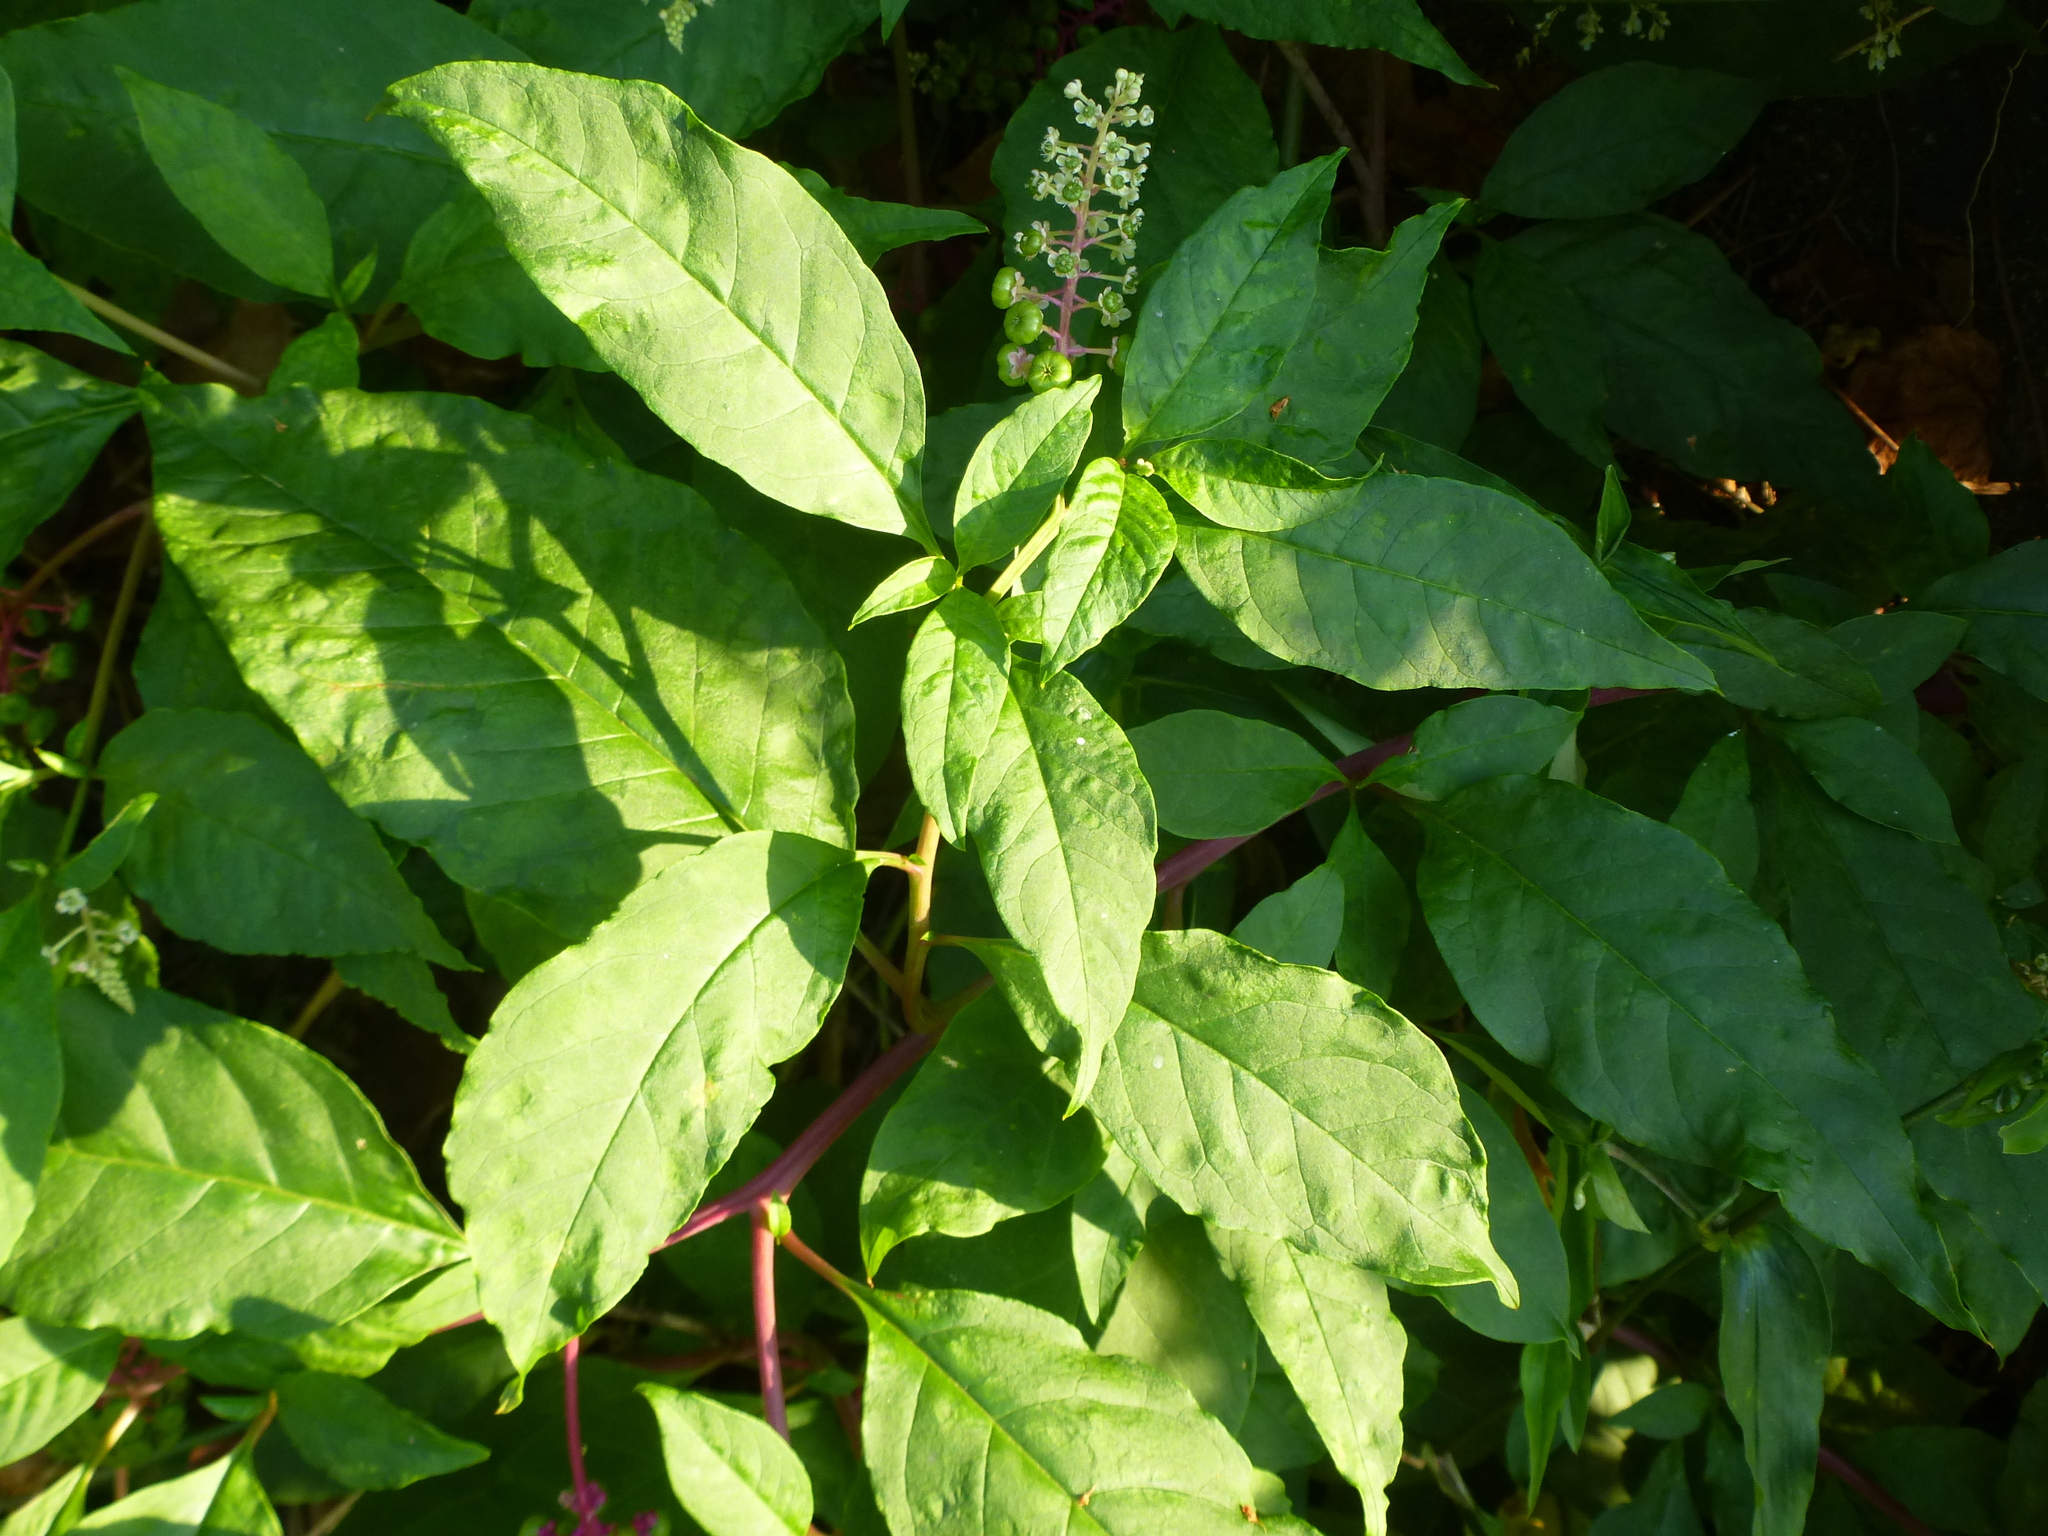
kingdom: Plantae
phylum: Tracheophyta
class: Magnoliopsida
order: Caryophyllales
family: Phytolaccaceae
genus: Phytolacca
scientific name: Phytolacca americana
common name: American pokeweed
